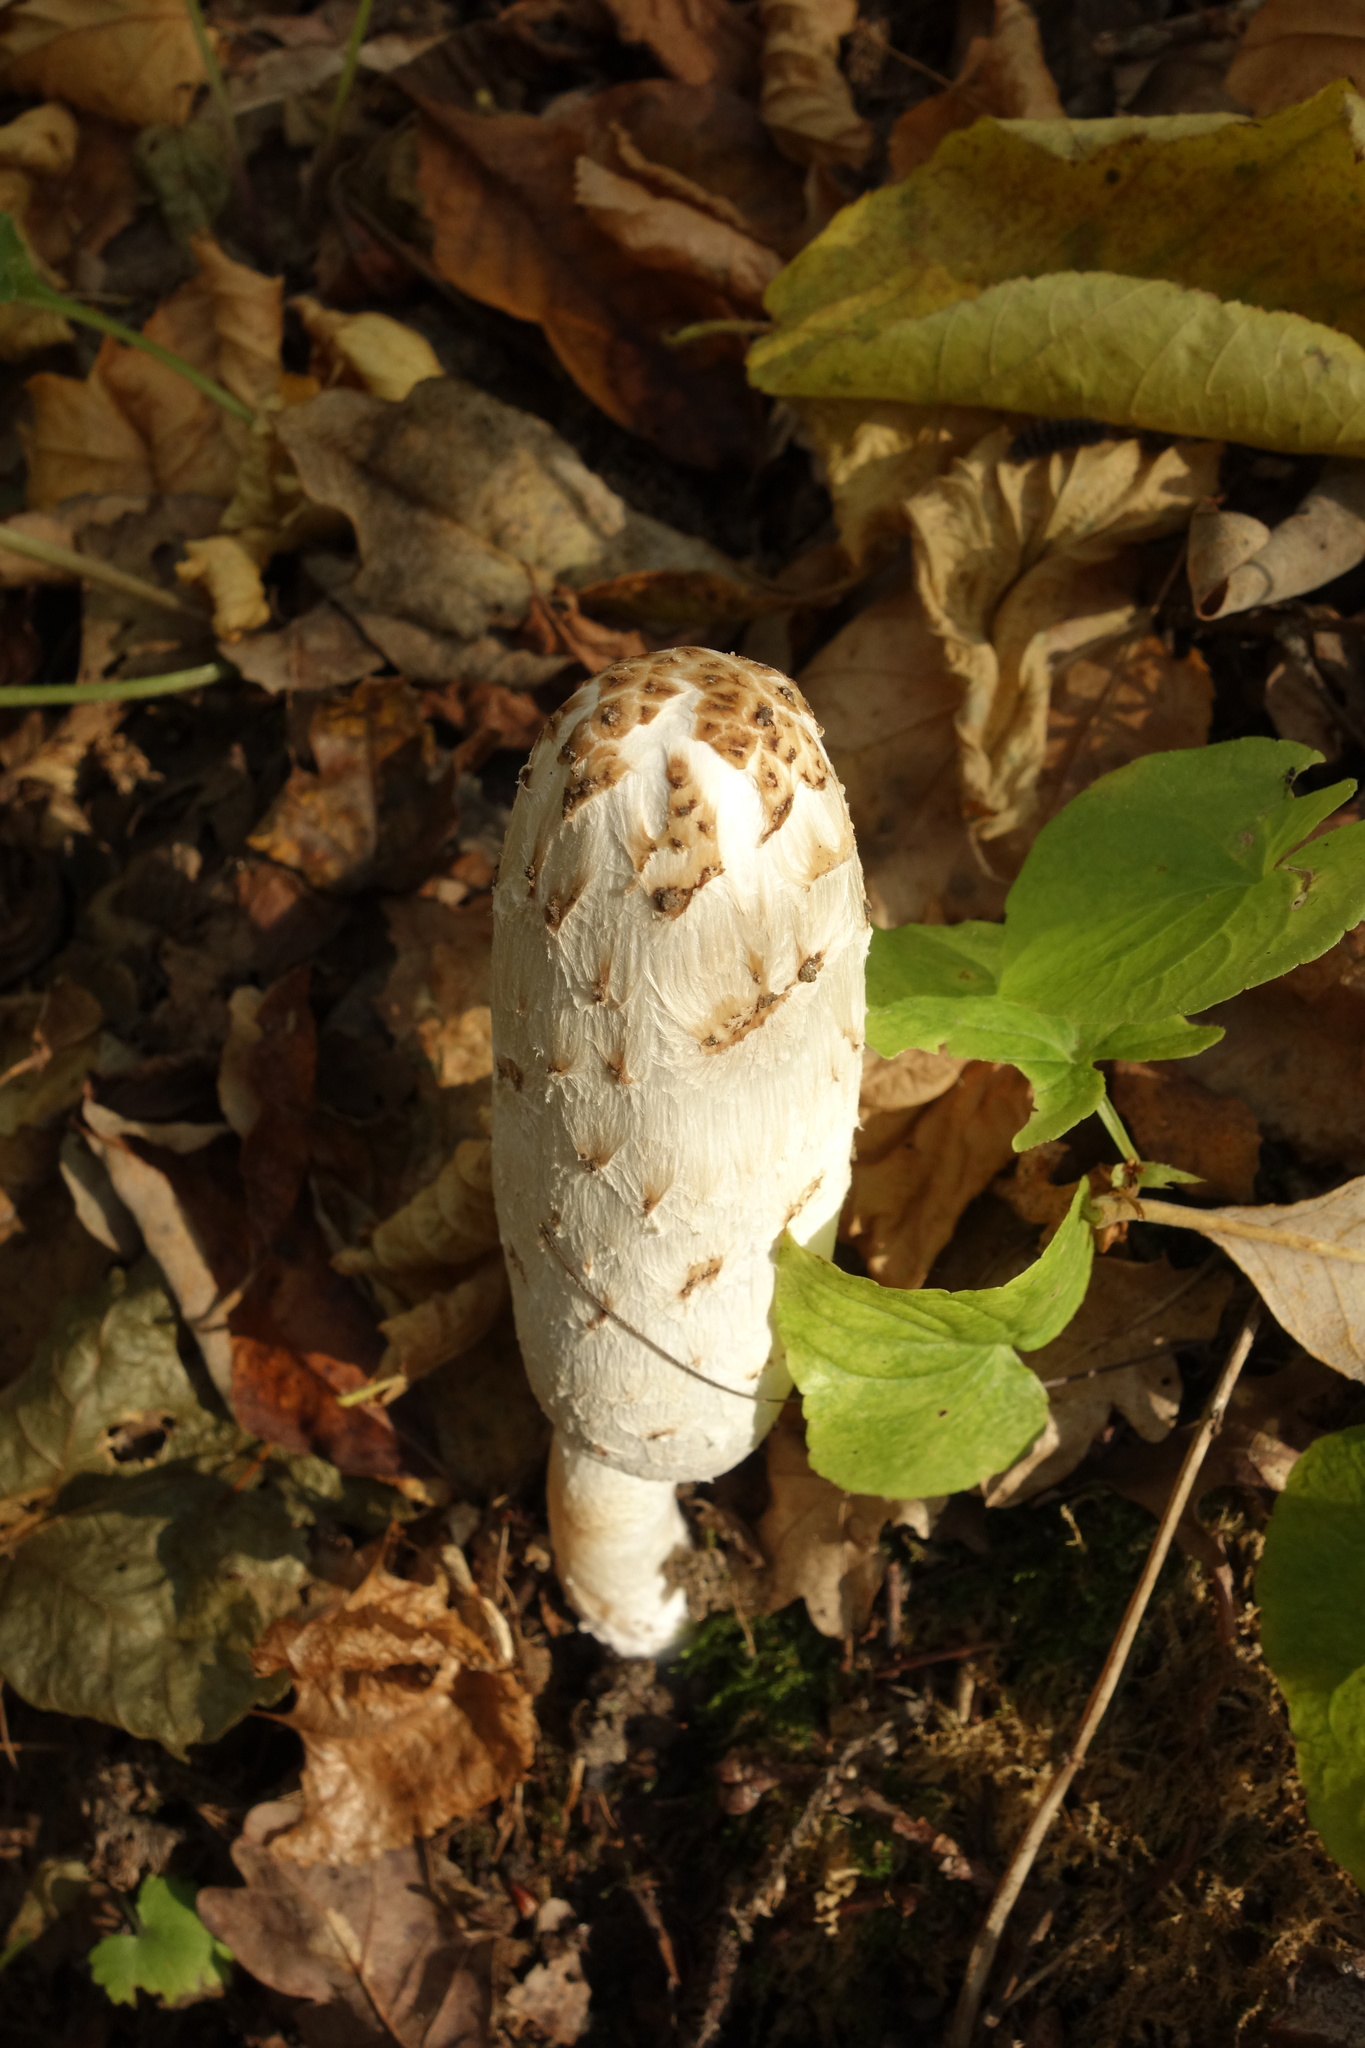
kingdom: Fungi
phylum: Basidiomycota
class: Agaricomycetes
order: Agaricales
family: Agaricaceae
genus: Coprinus
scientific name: Coprinus comatus
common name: Lawyer's wig
